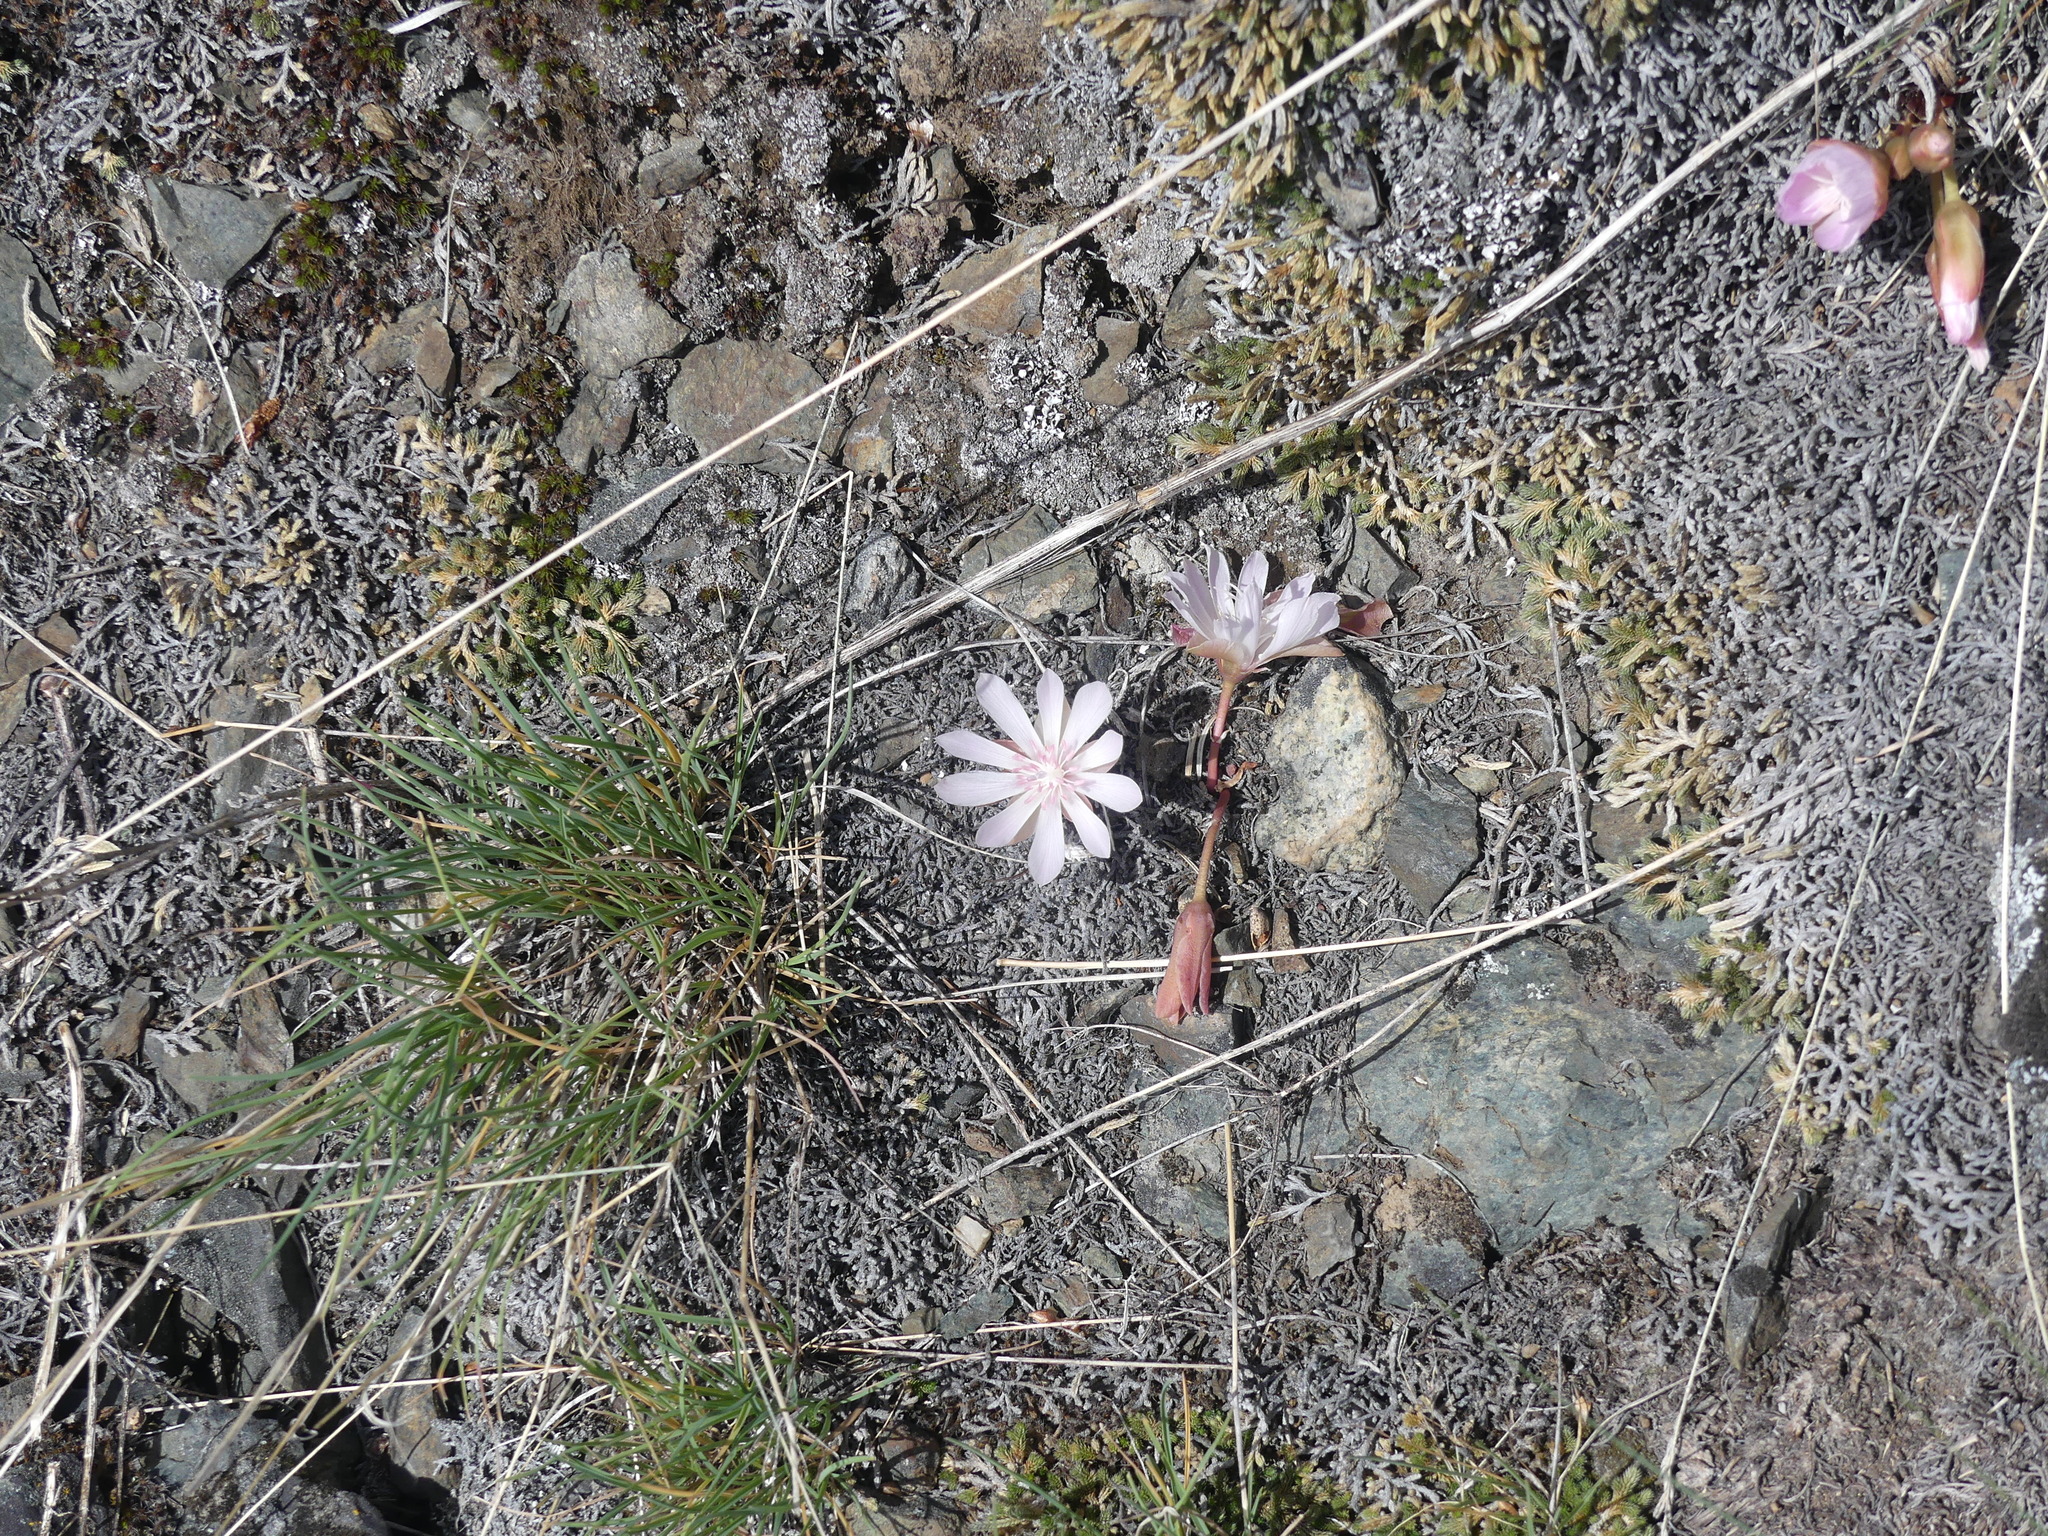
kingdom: Plantae
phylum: Tracheophyta
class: Magnoliopsida
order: Caryophyllales
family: Montiaceae
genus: Lewisia
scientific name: Lewisia rediviva
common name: Bitter-root
